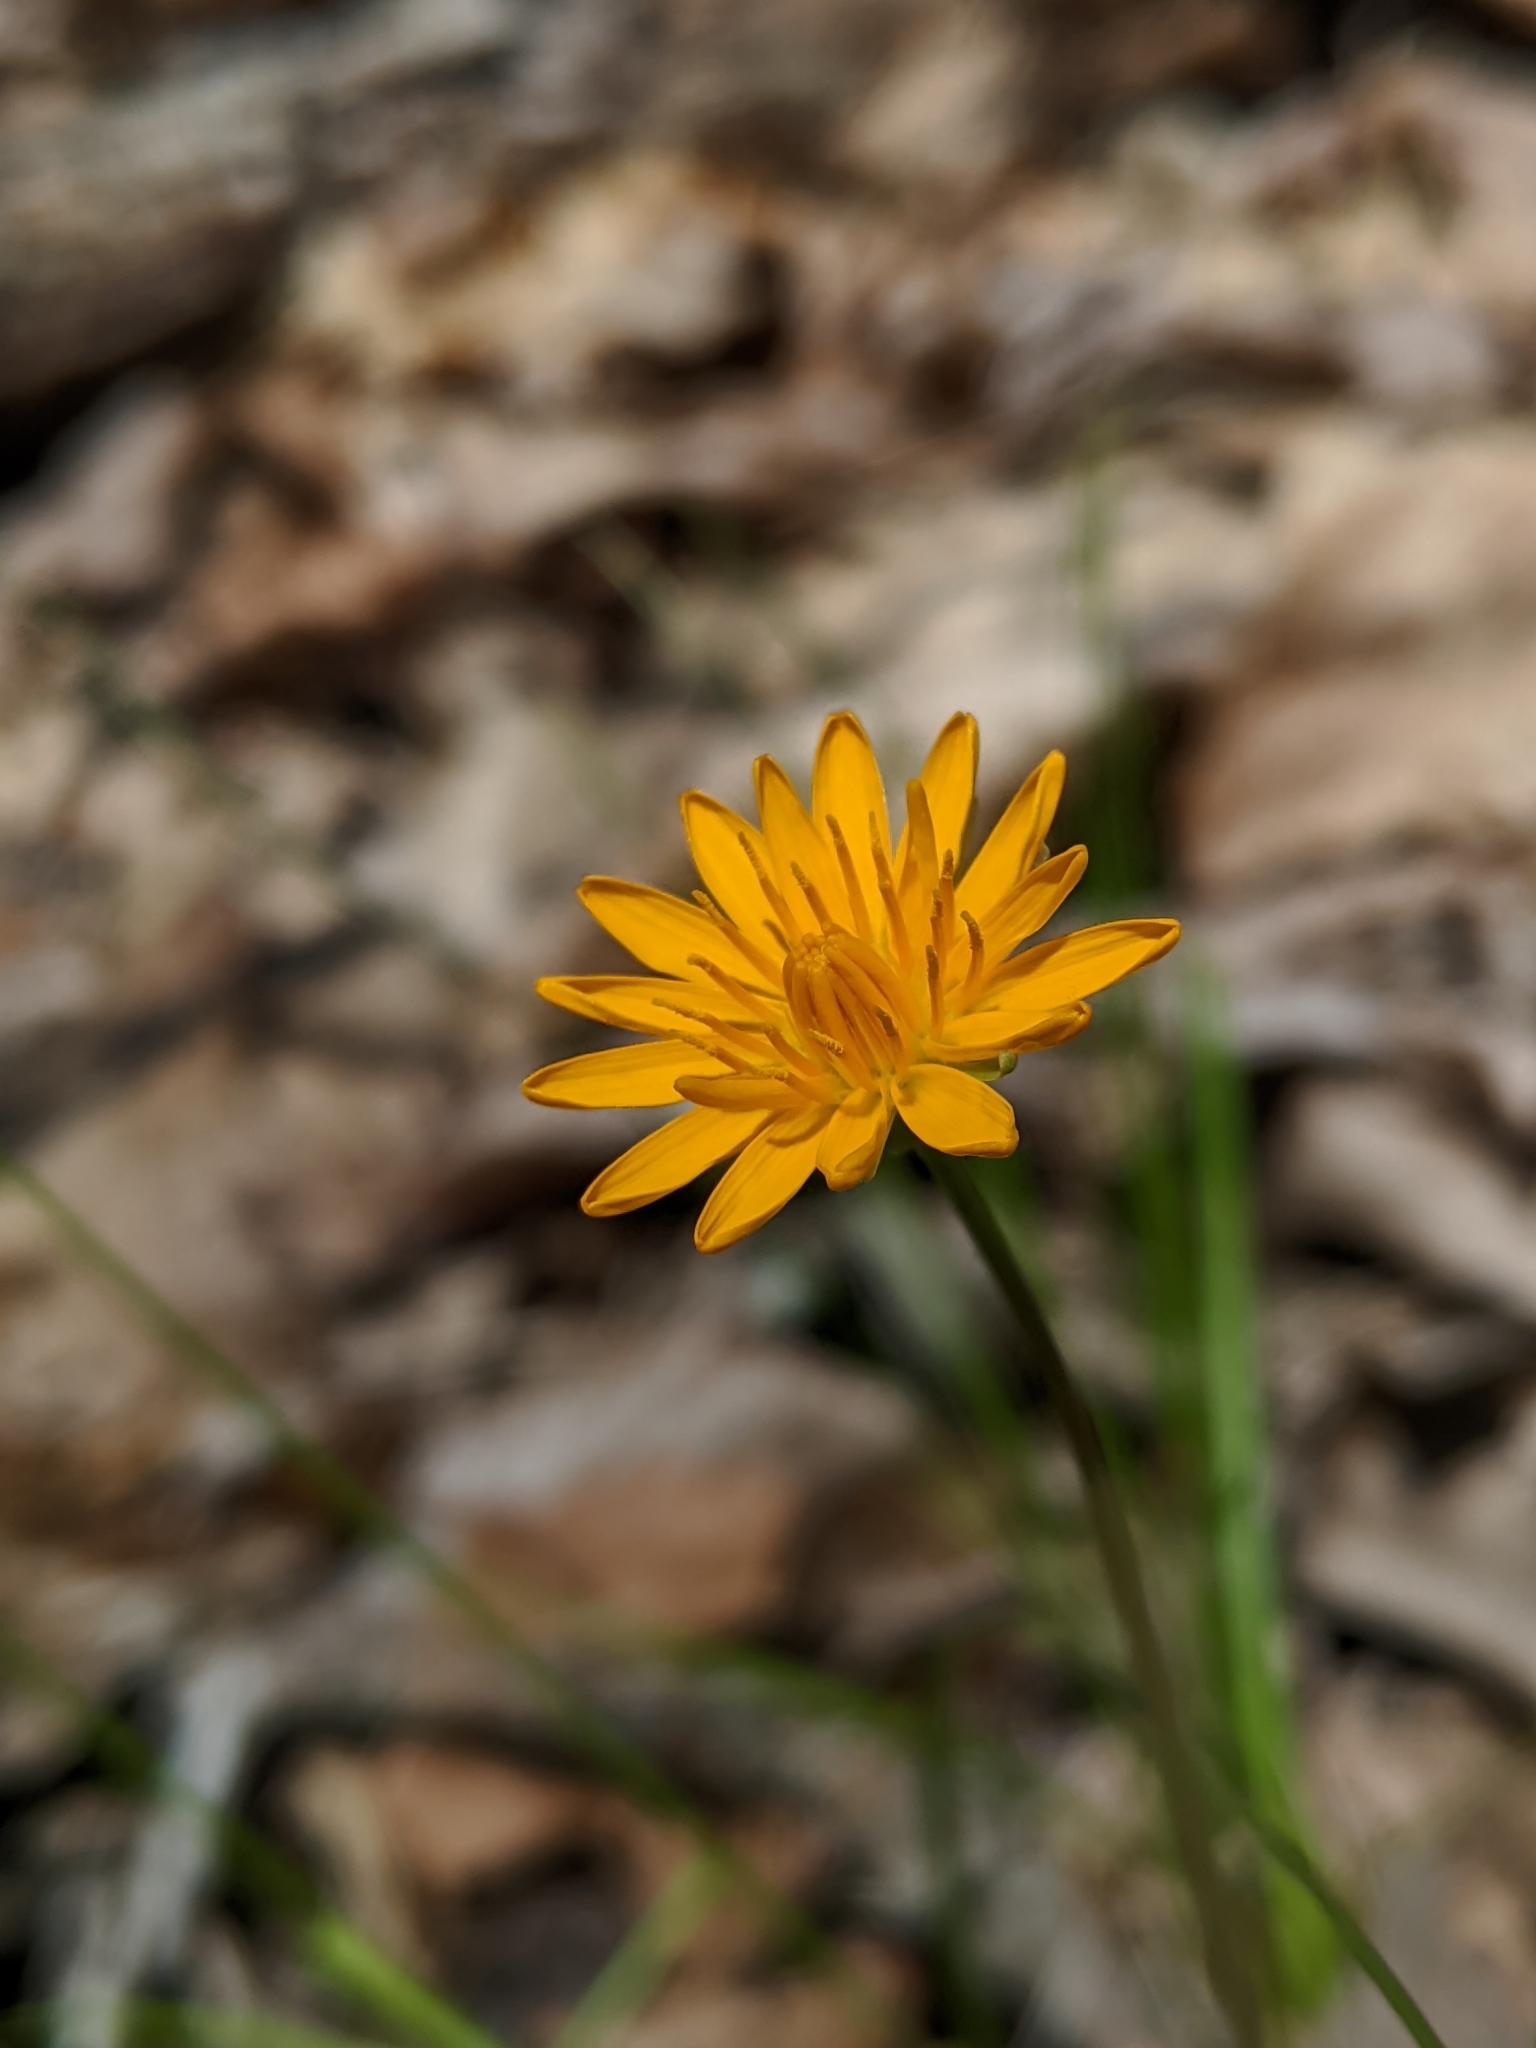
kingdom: Plantae
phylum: Tracheophyta
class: Magnoliopsida
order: Asterales
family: Asteraceae
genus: Krigia
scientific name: Krigia biflora
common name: Orange dwarf-dandelion
